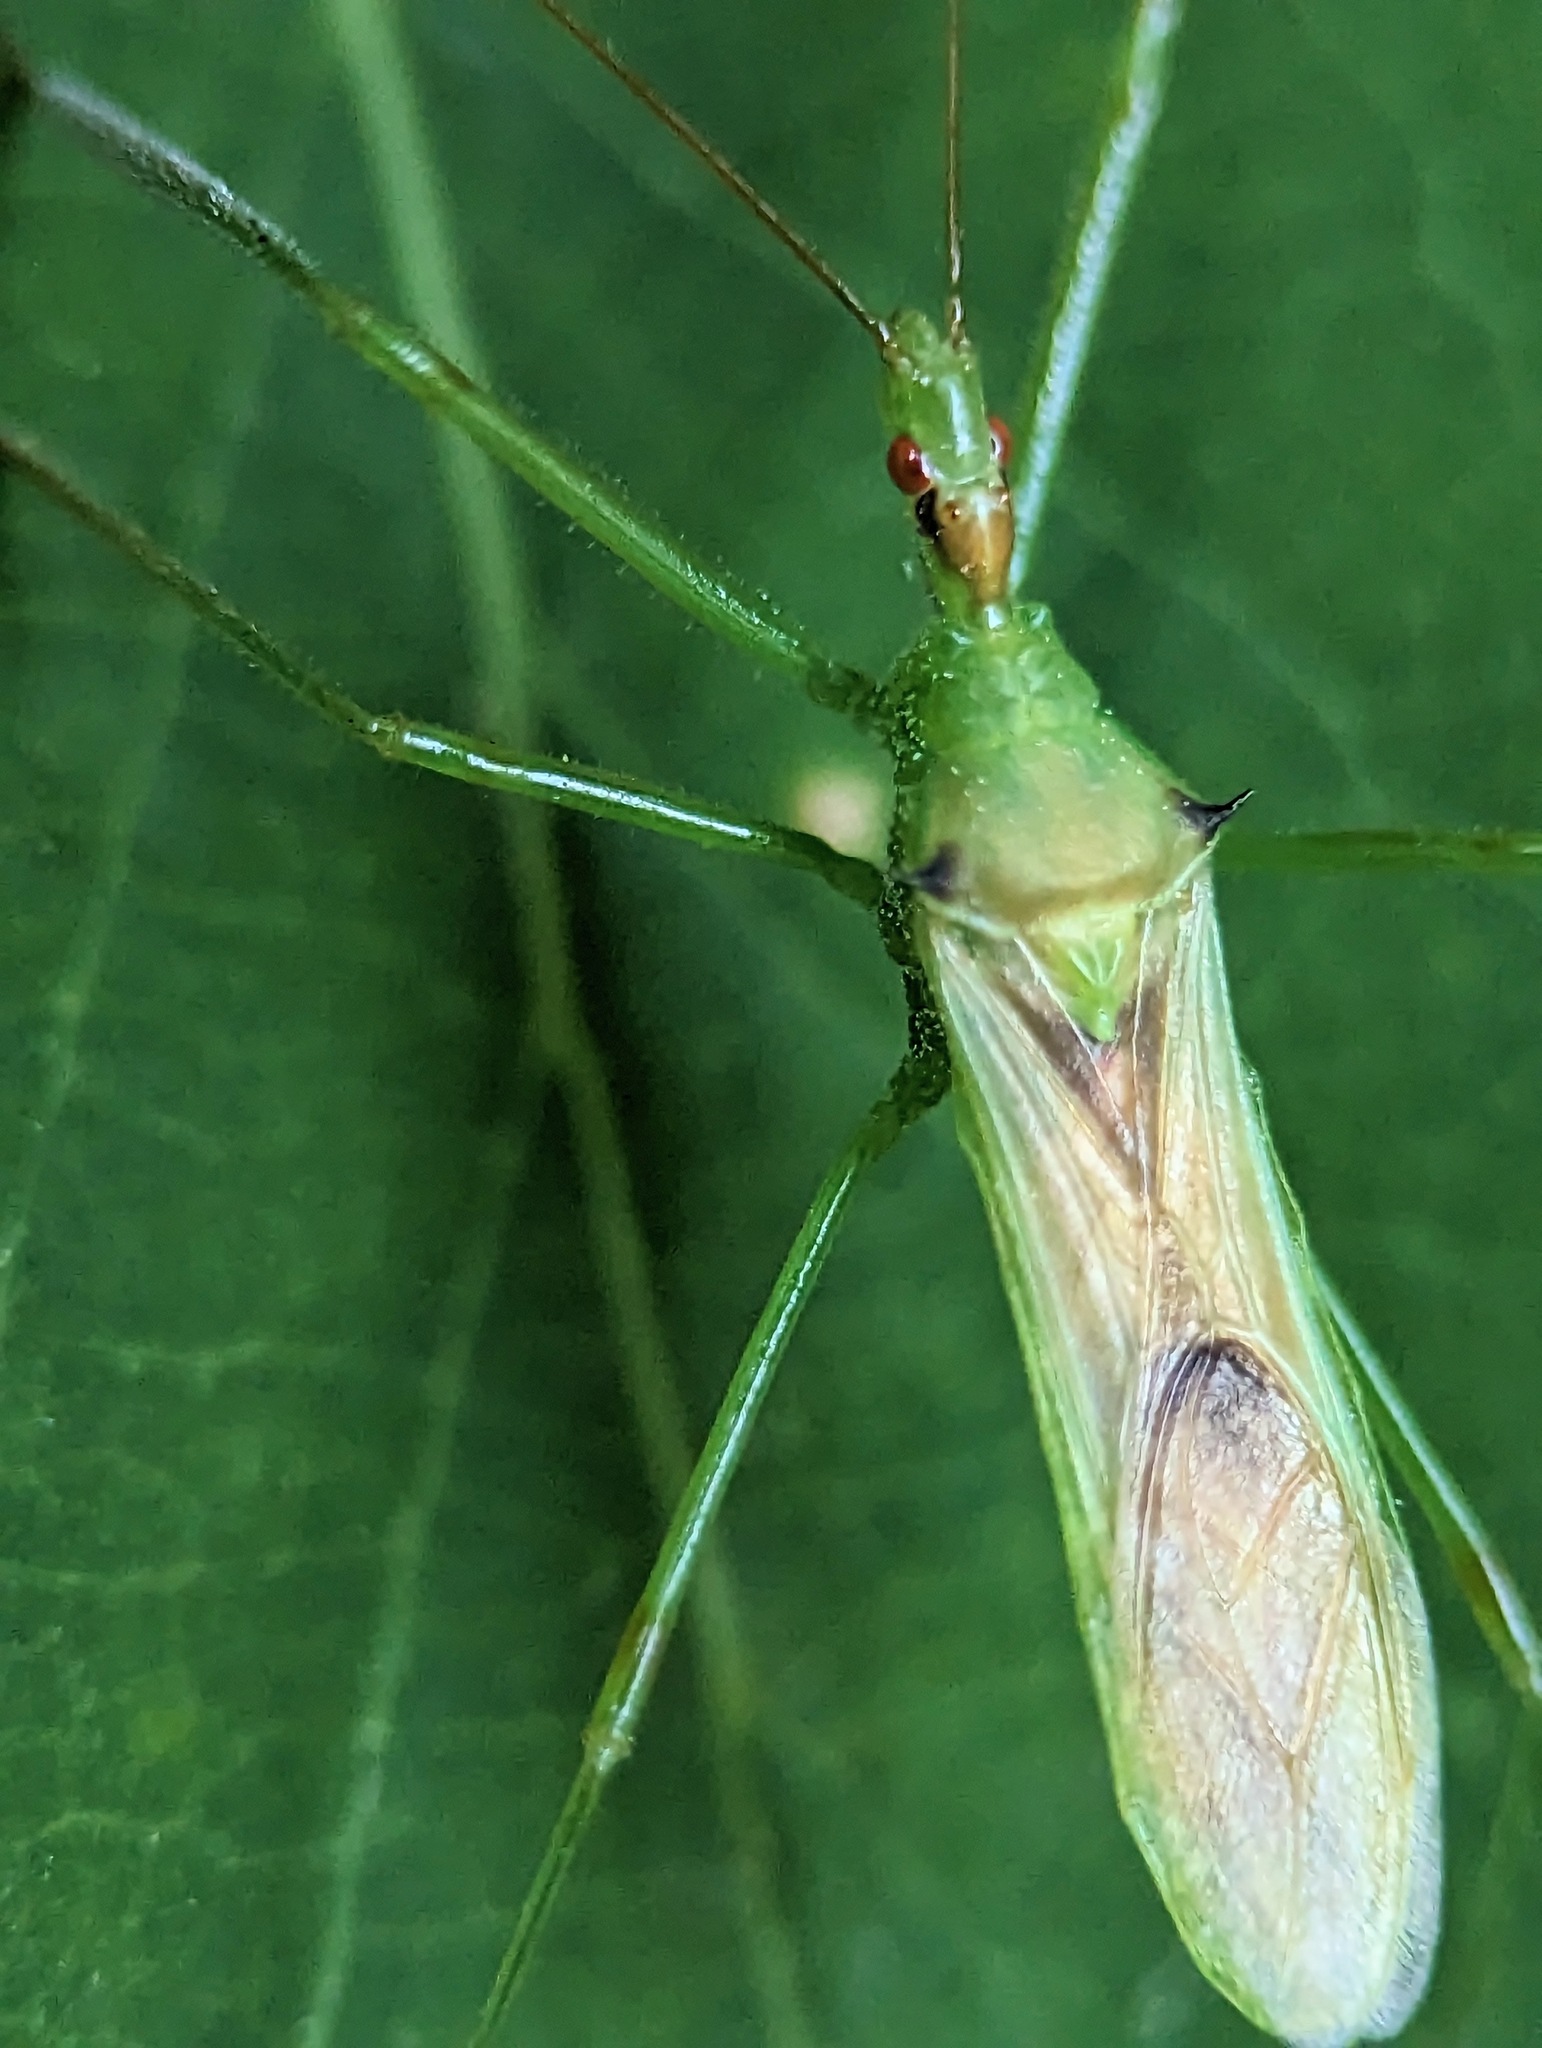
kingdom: Animalia
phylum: Arthropoda
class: Insecta
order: Hemiptera
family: Reduviidae
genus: Zelus
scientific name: Zelus luridus
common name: Pale green assassin bug
